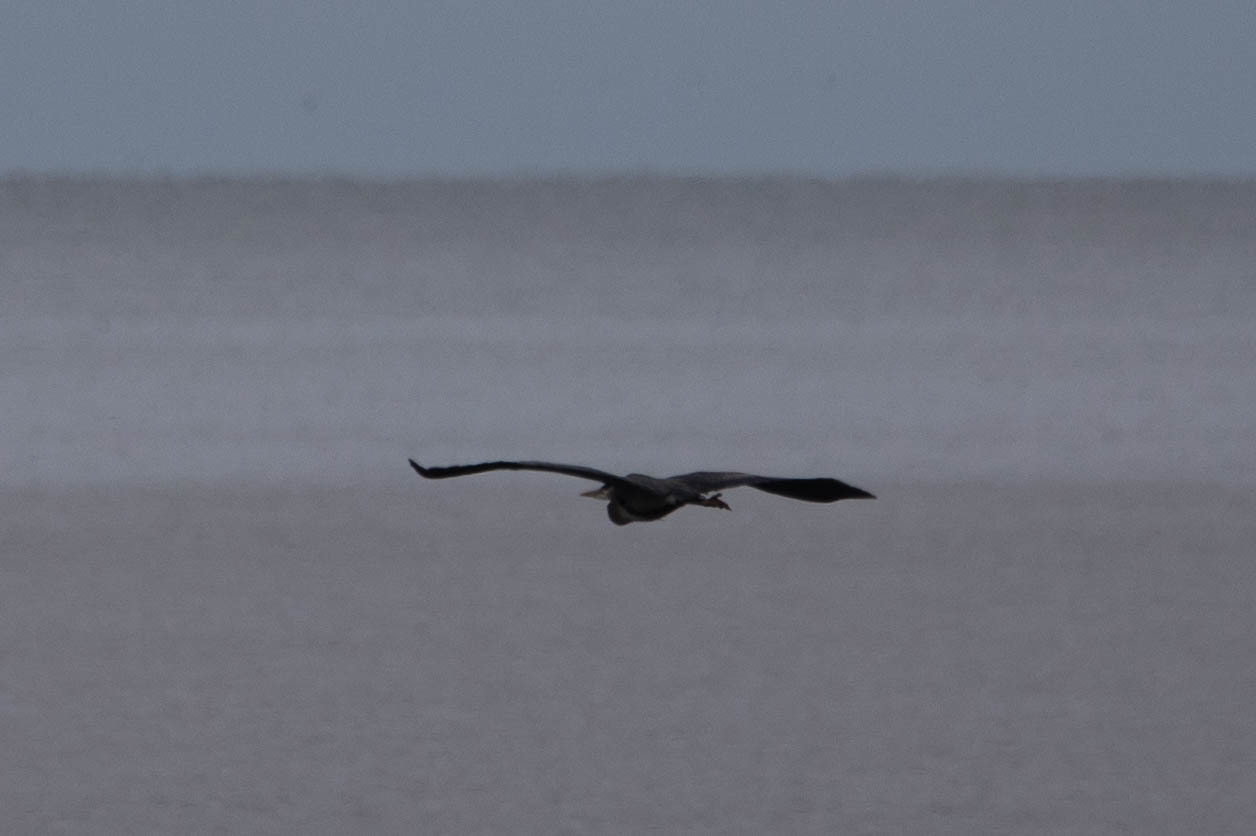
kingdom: Animalia
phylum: Chordata
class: Aves
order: Pelecaniformes
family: Ardeidae
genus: Ardea
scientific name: Ardea herodias
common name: Great blue heron
